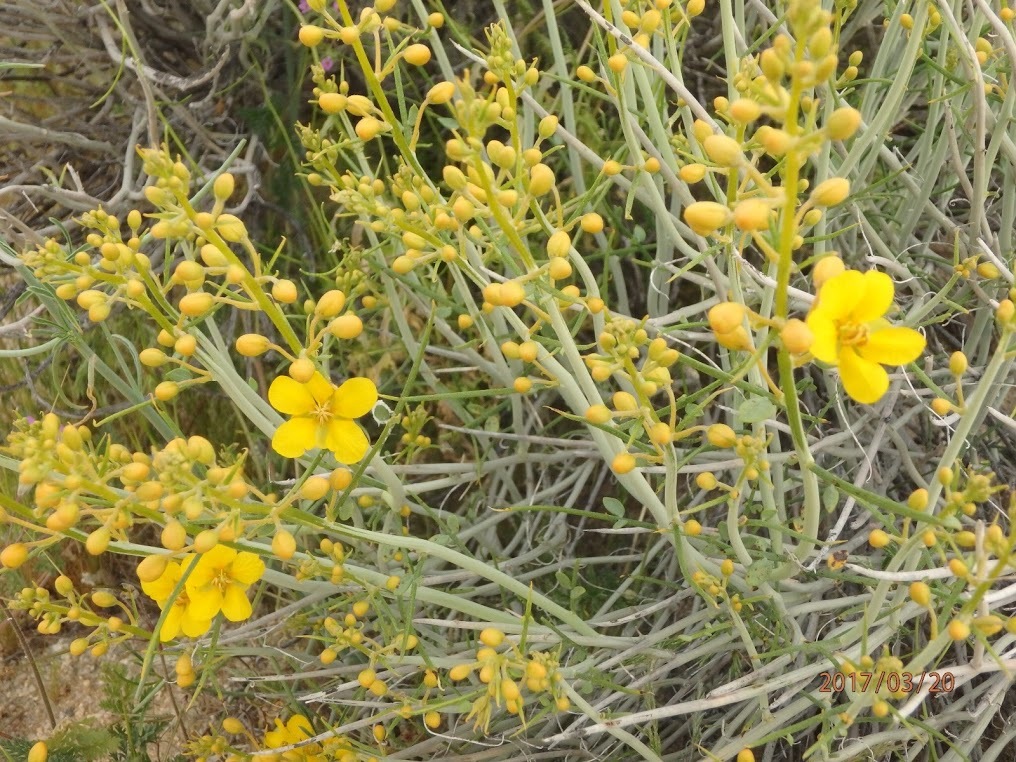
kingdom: Plantae
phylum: Tracheophyta
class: Magnoliopsida
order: Fabales
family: Fabaceae
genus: Senna
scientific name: Senna armata
